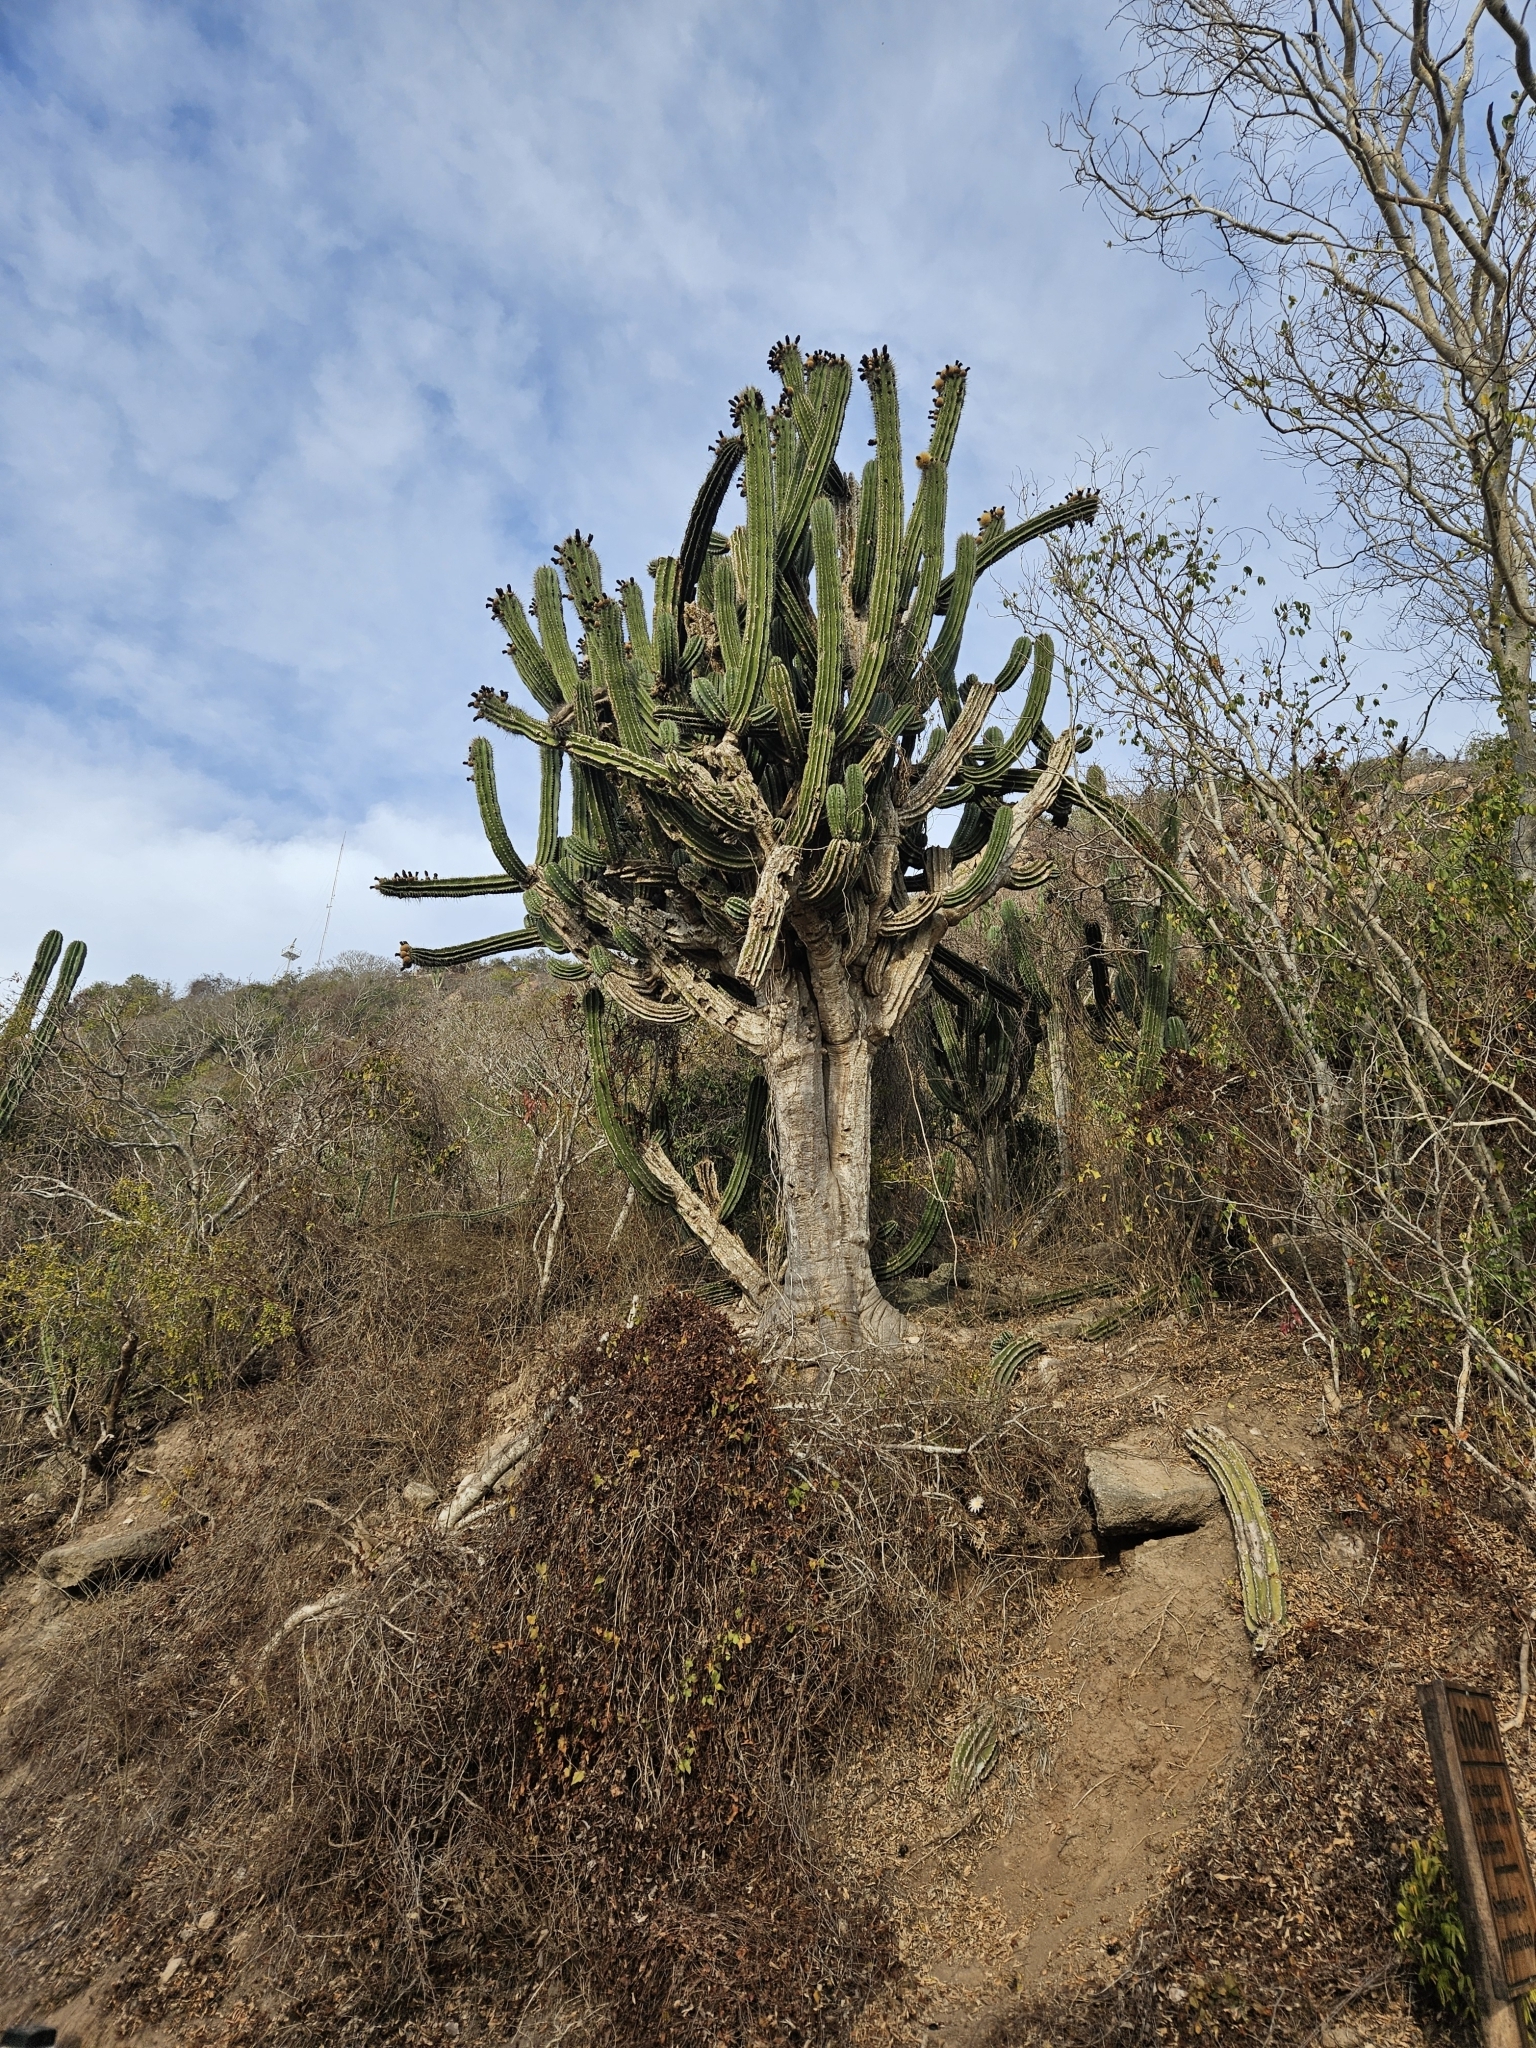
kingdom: Plantae
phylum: Tracheophyta
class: Magnoliopsida
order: Caryophyllales
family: Cactaceae
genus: Pachycereus
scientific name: Pachycereus pecten-aboriginum
